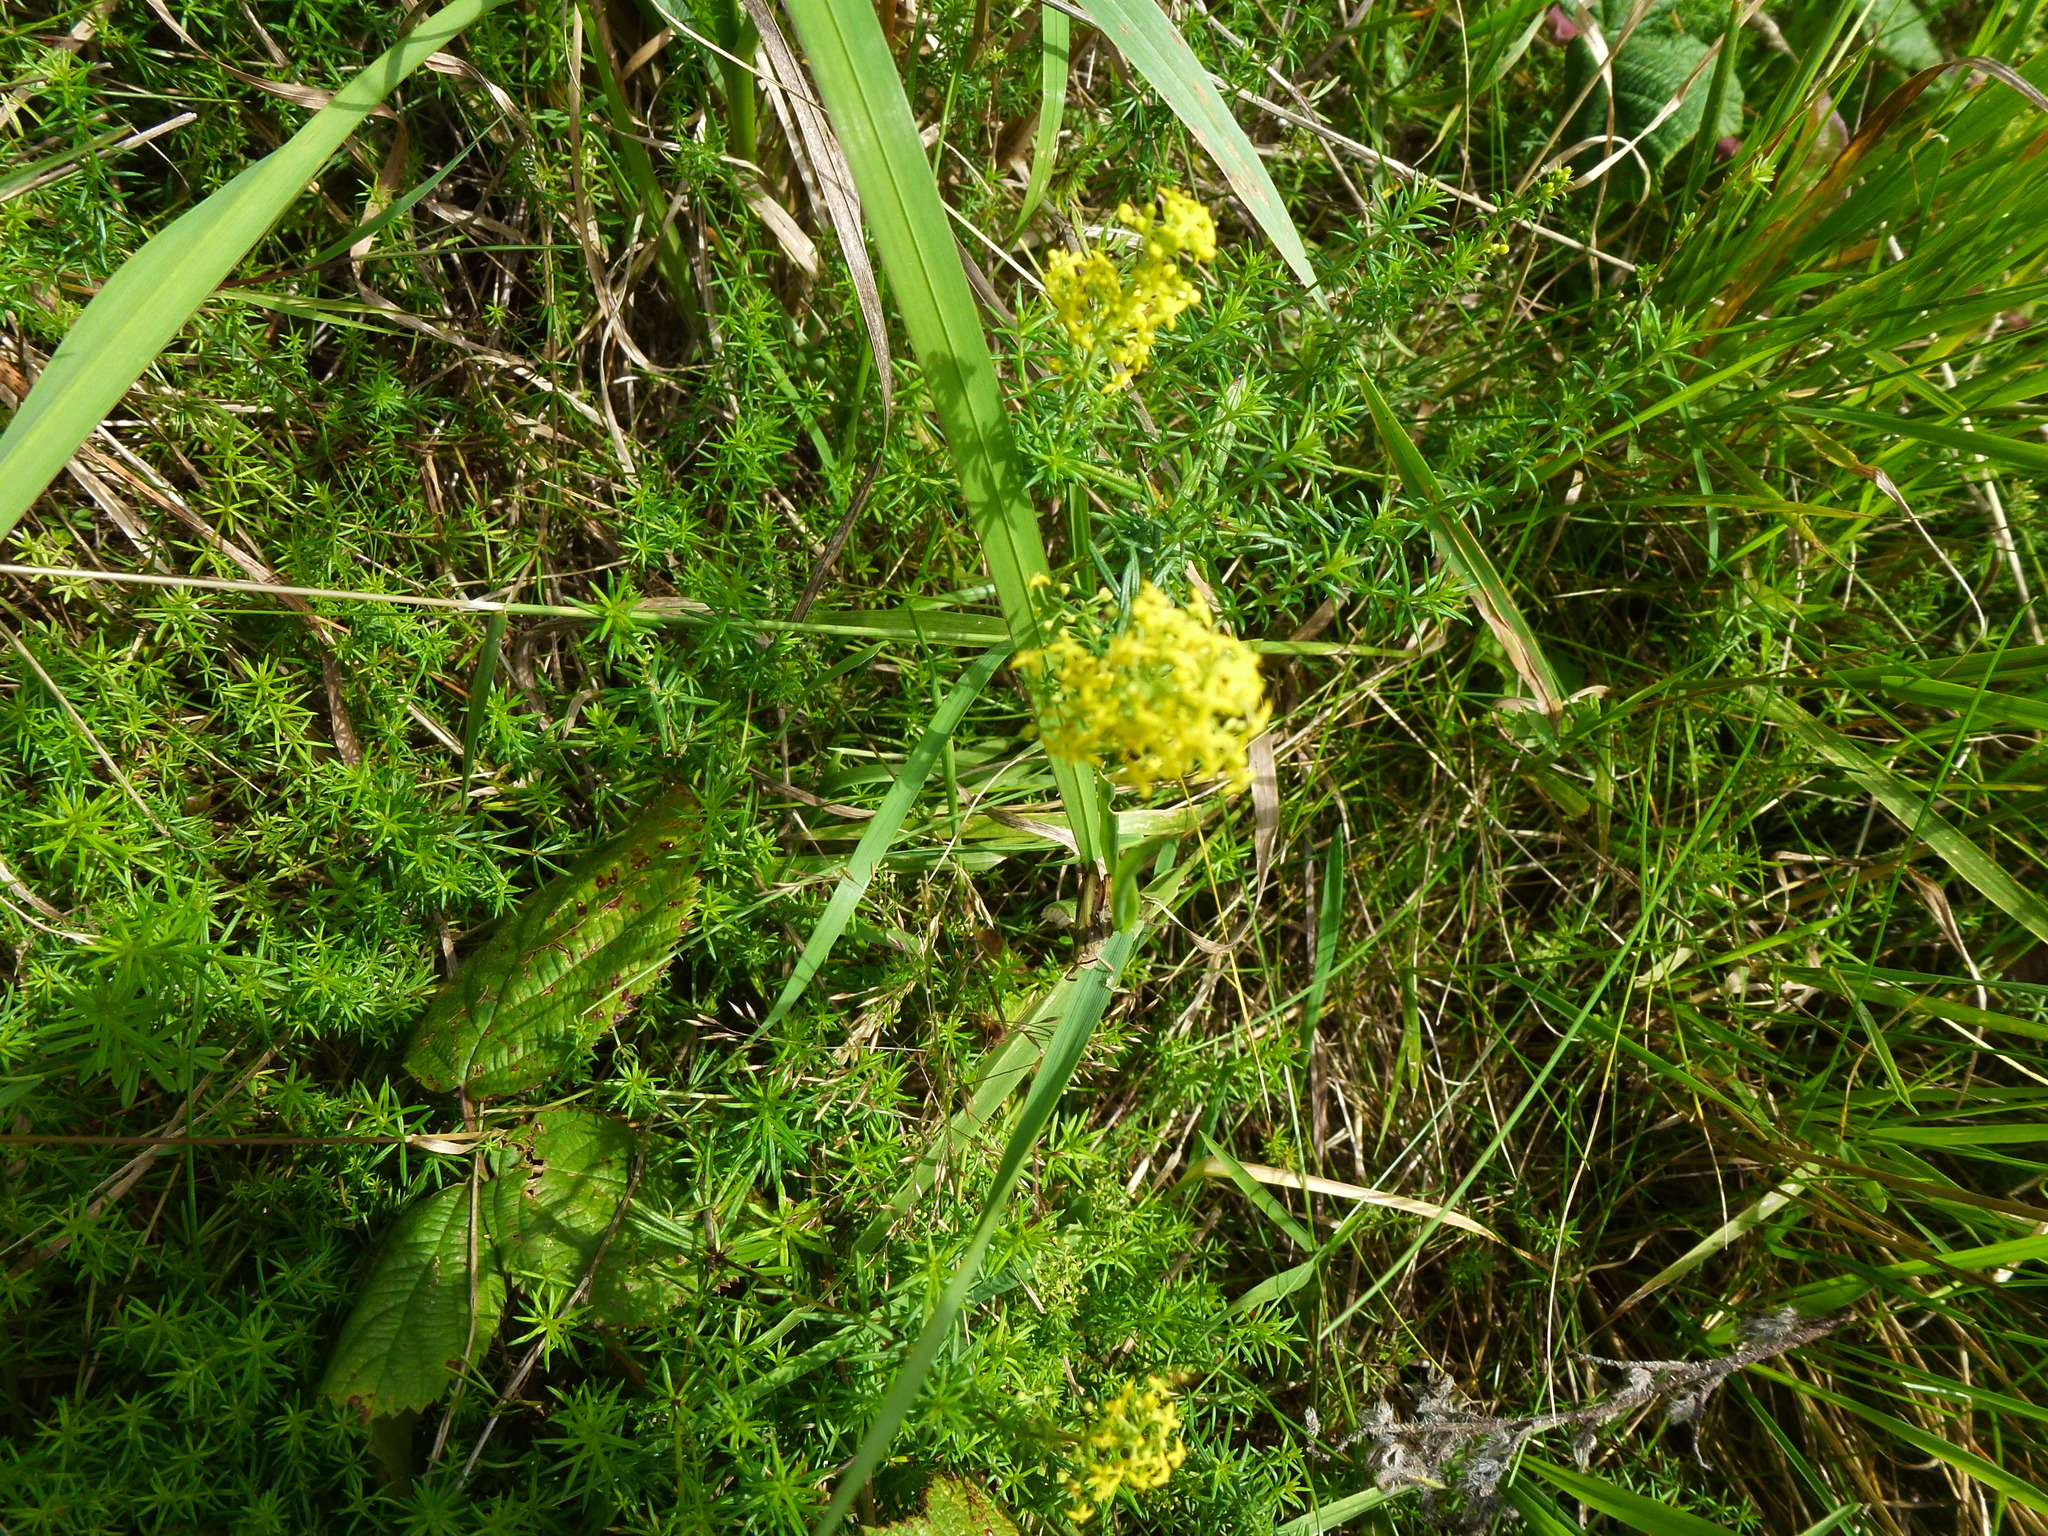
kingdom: Plantae
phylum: Tracheophyta
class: Magnoliopsida
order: Gentianales
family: Rubiaceae
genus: Galium
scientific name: Galium verum
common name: Lady's bedstraw
